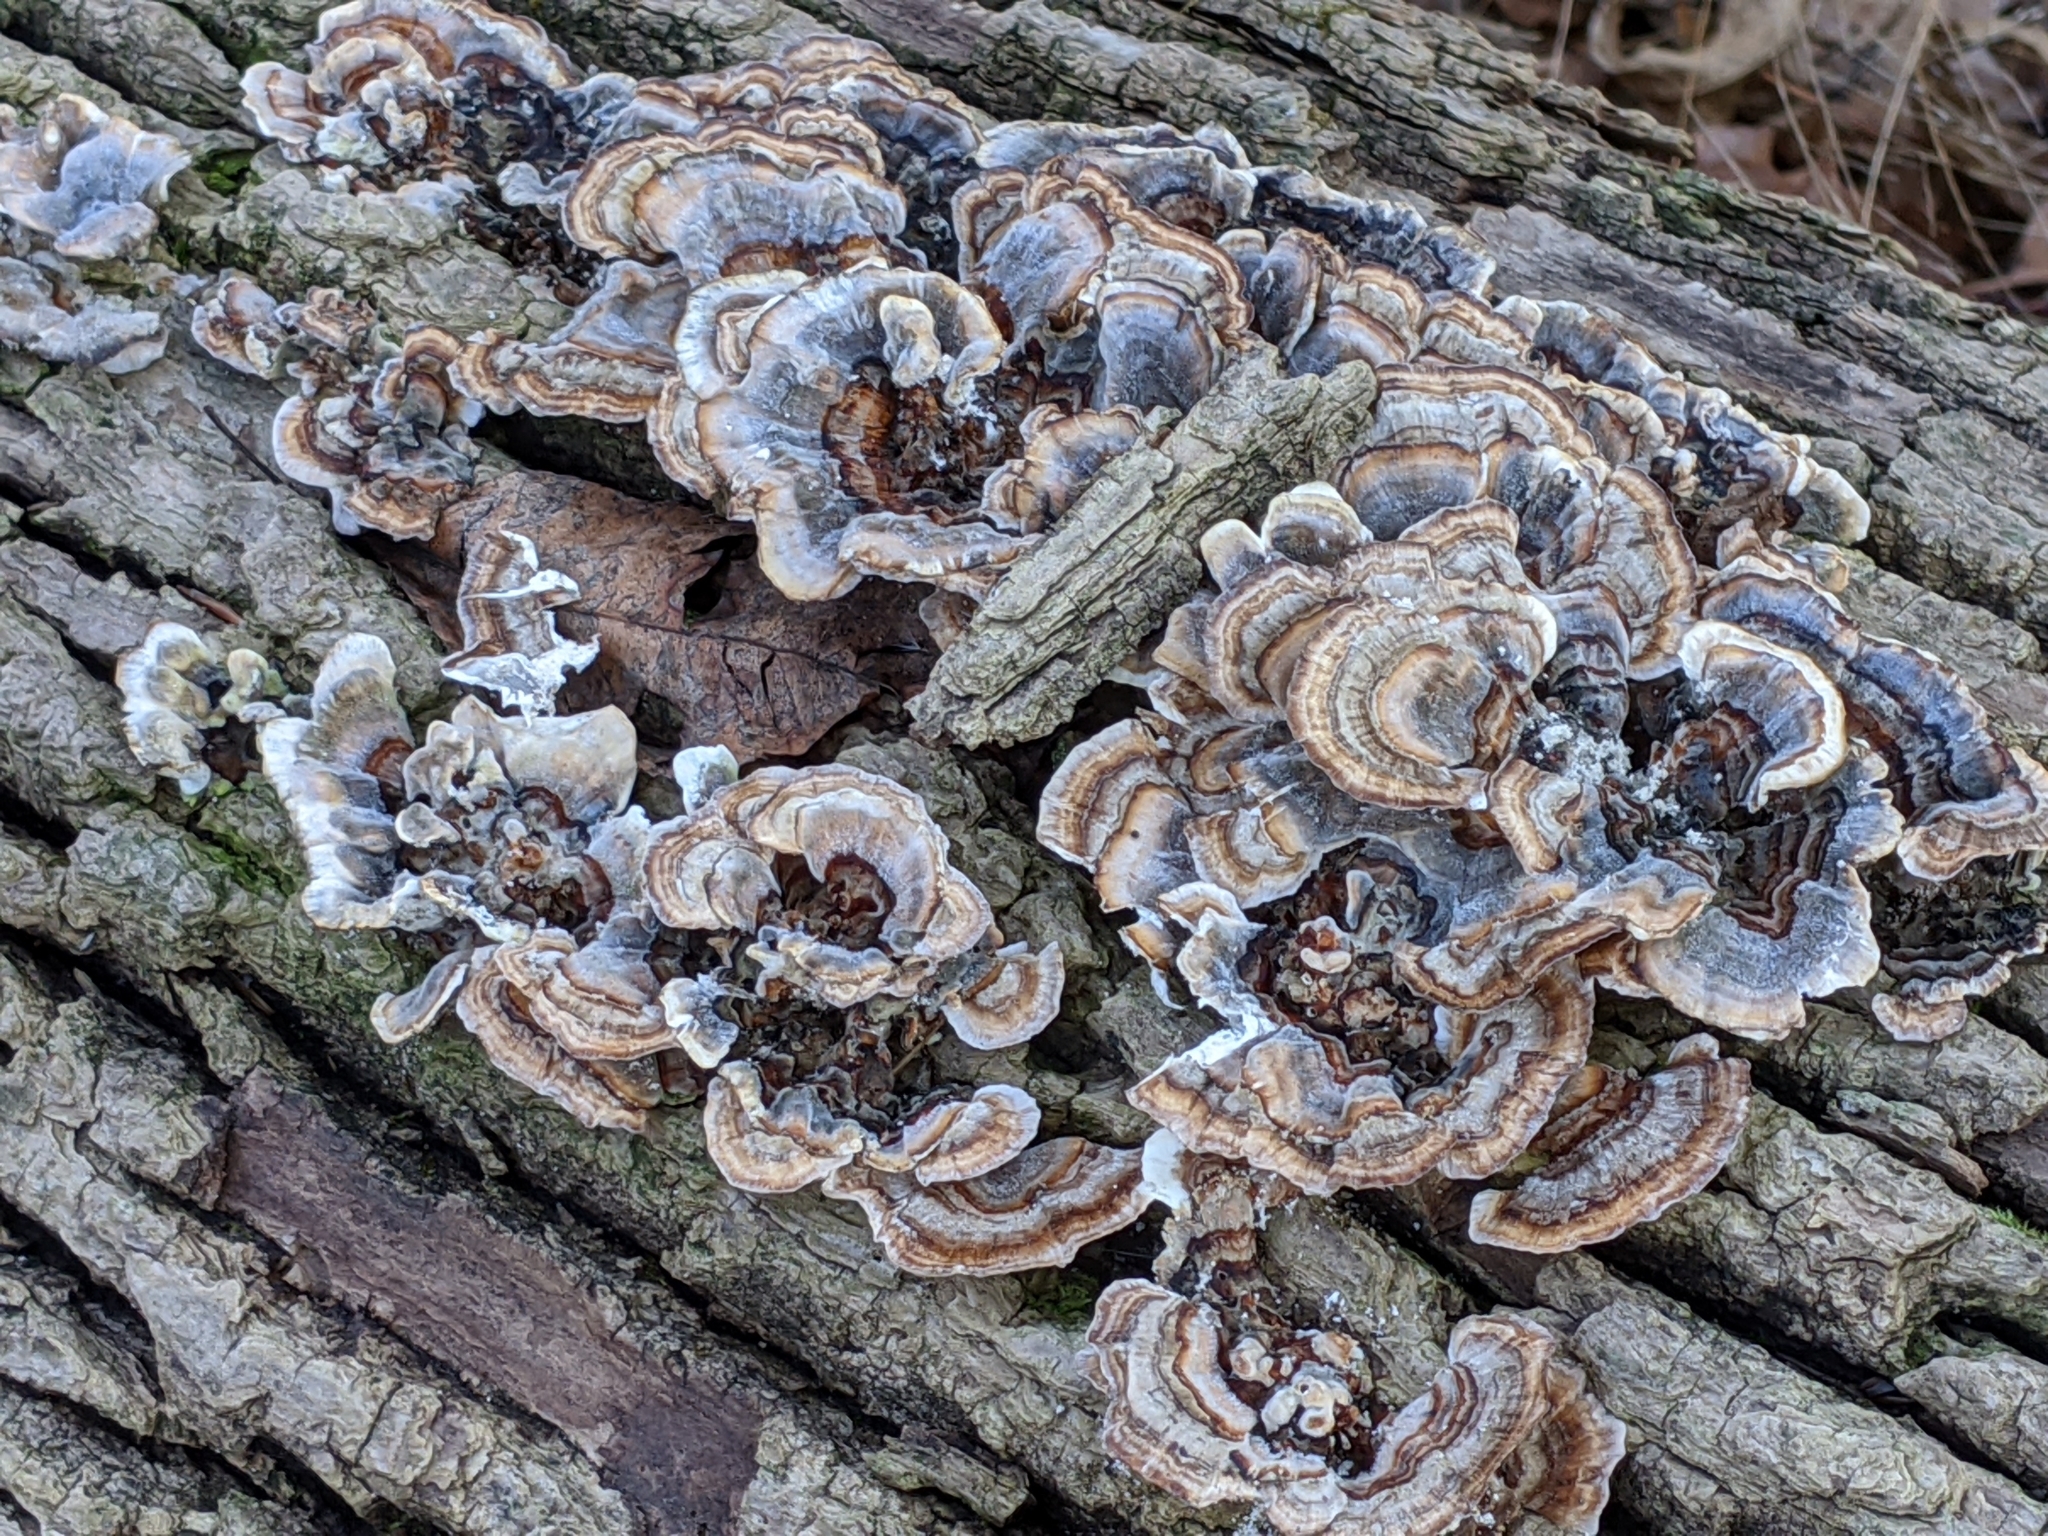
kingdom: Fungi
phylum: Basidiomycota
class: Agaricomycetes
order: Polyporales
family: Polyporaceae
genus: Trametes
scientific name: Trametes versicolor
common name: Turkeytail
